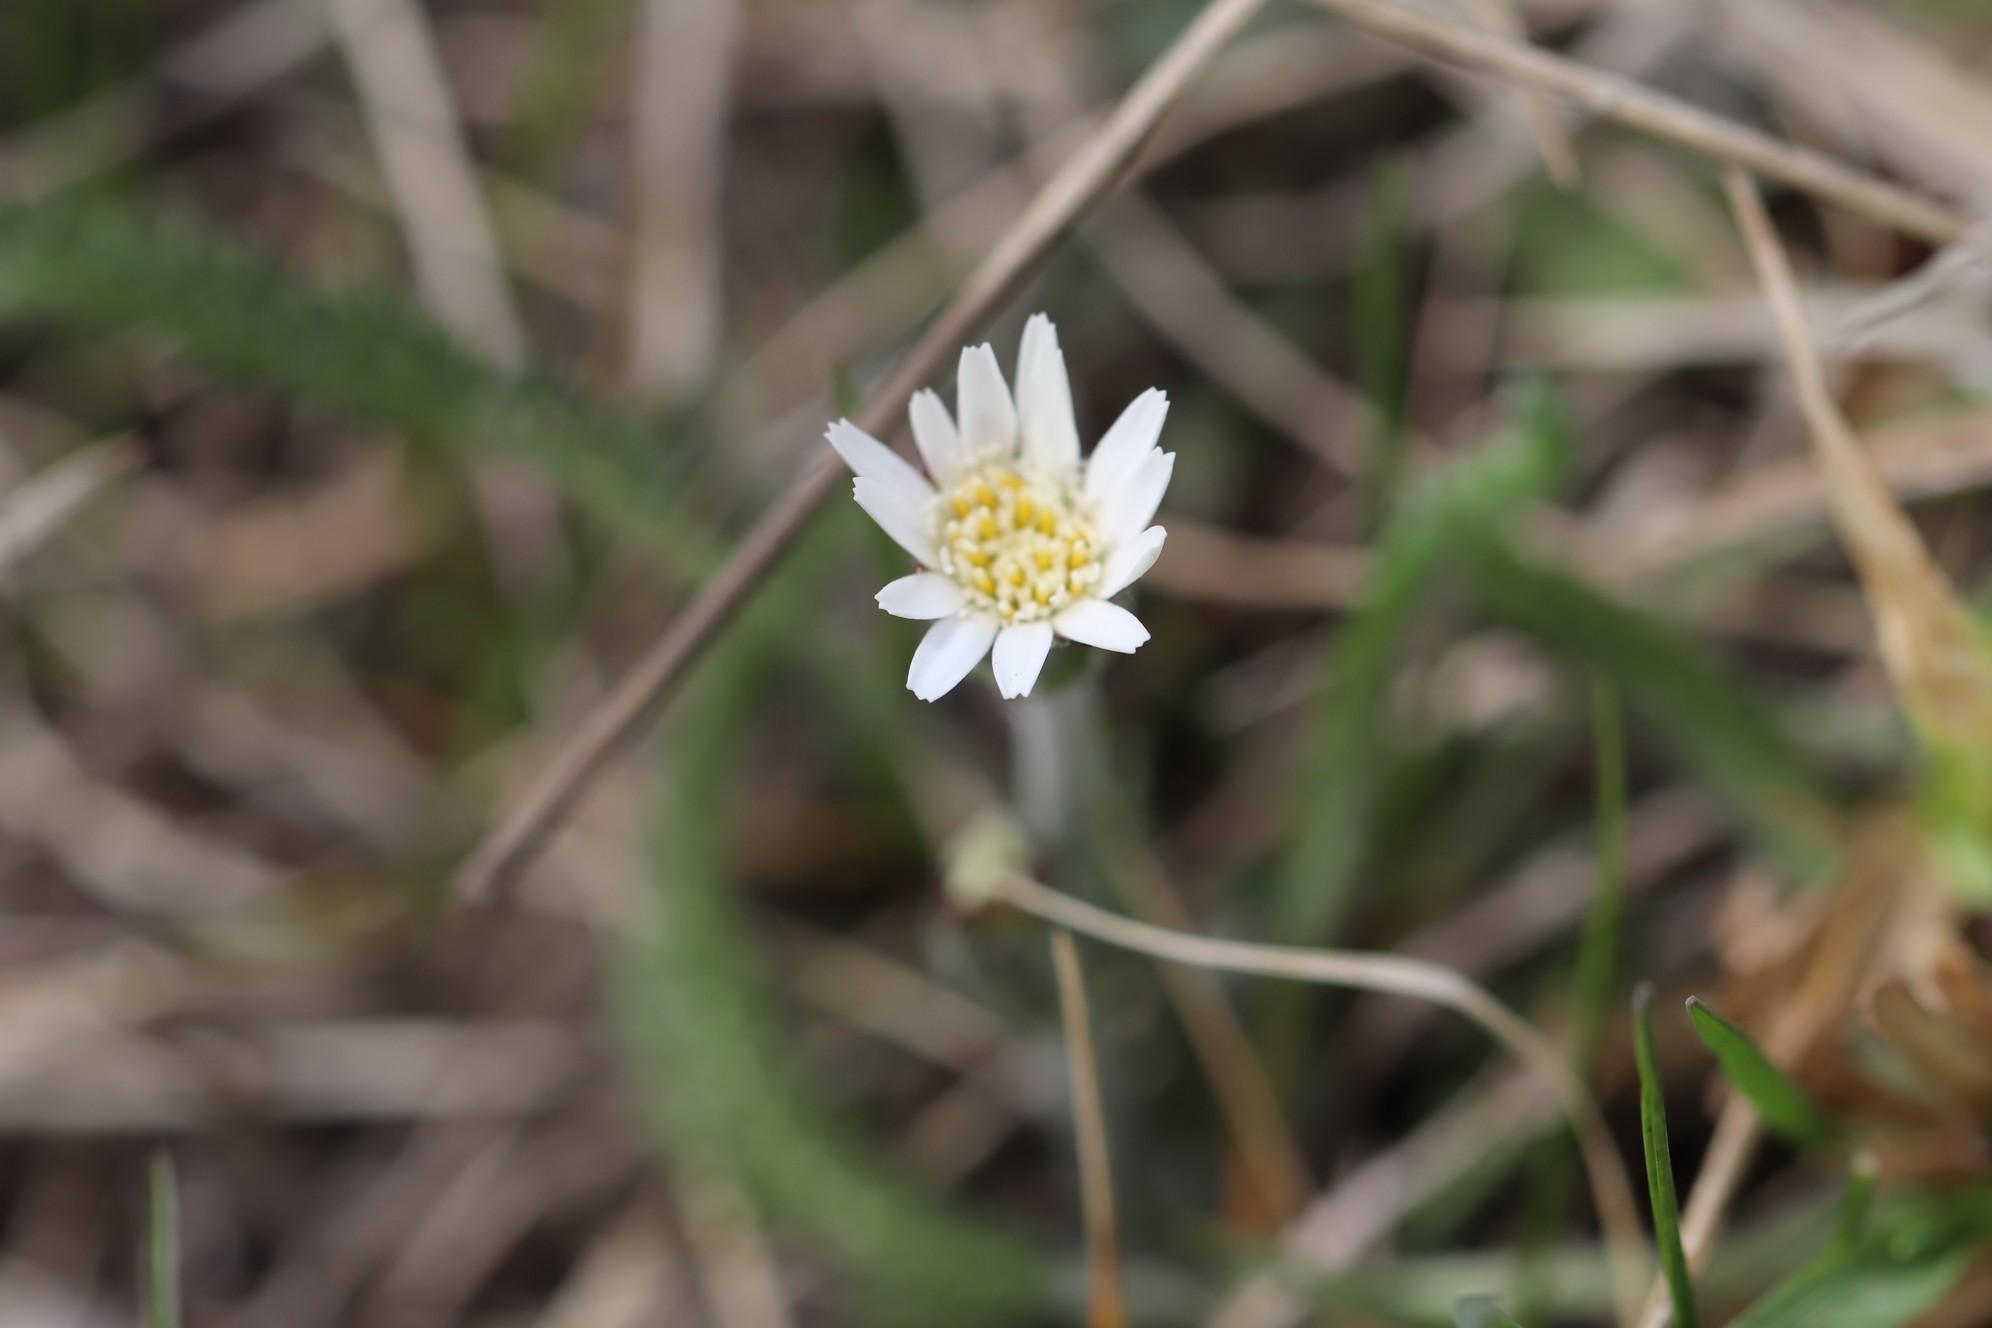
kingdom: Plantae
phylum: Tracheophyta
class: Magnoliopsida
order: Asterales
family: Asteraceae
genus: Leibnitzia
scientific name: Leibnitzia anandria
